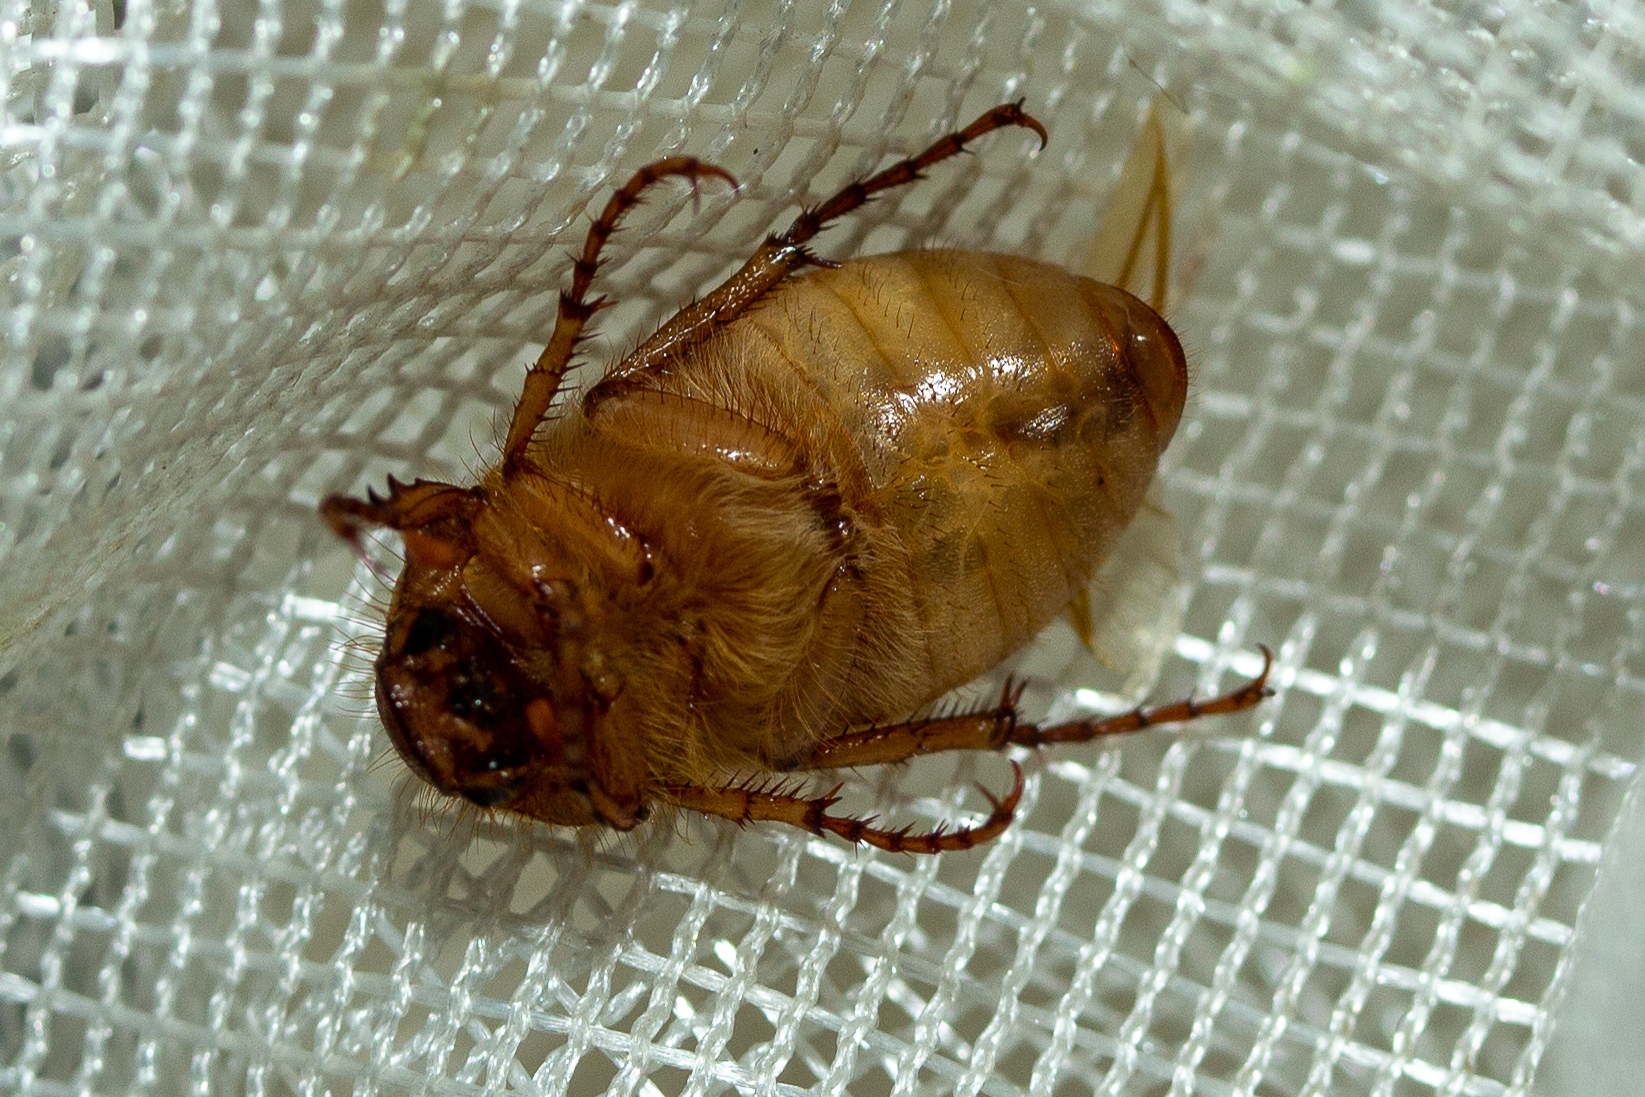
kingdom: Animalia
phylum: Arthropoda
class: Insecta
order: Coleoptera
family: Scarabaeidae
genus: Amphimallon
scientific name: Amphimallon majale
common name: European chafer
